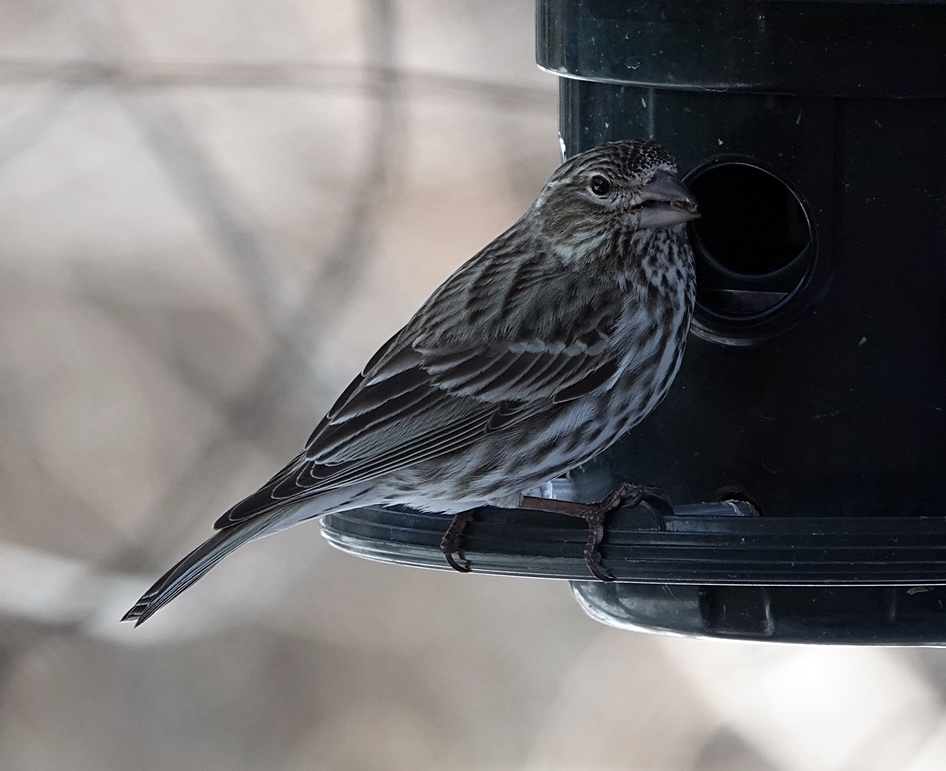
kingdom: Animalia
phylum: Chordata
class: Aves
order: Passeriformes
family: Fringillidae
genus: Haemorhous
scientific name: Haemorhous mexicanus
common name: House finch
